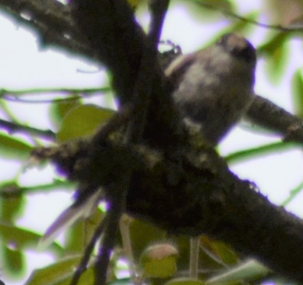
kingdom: Animalia
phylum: Chordata
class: Aves
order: Passeriformes
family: Aegithalidae
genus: Aegithalos
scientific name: Aegithalos caudatus
